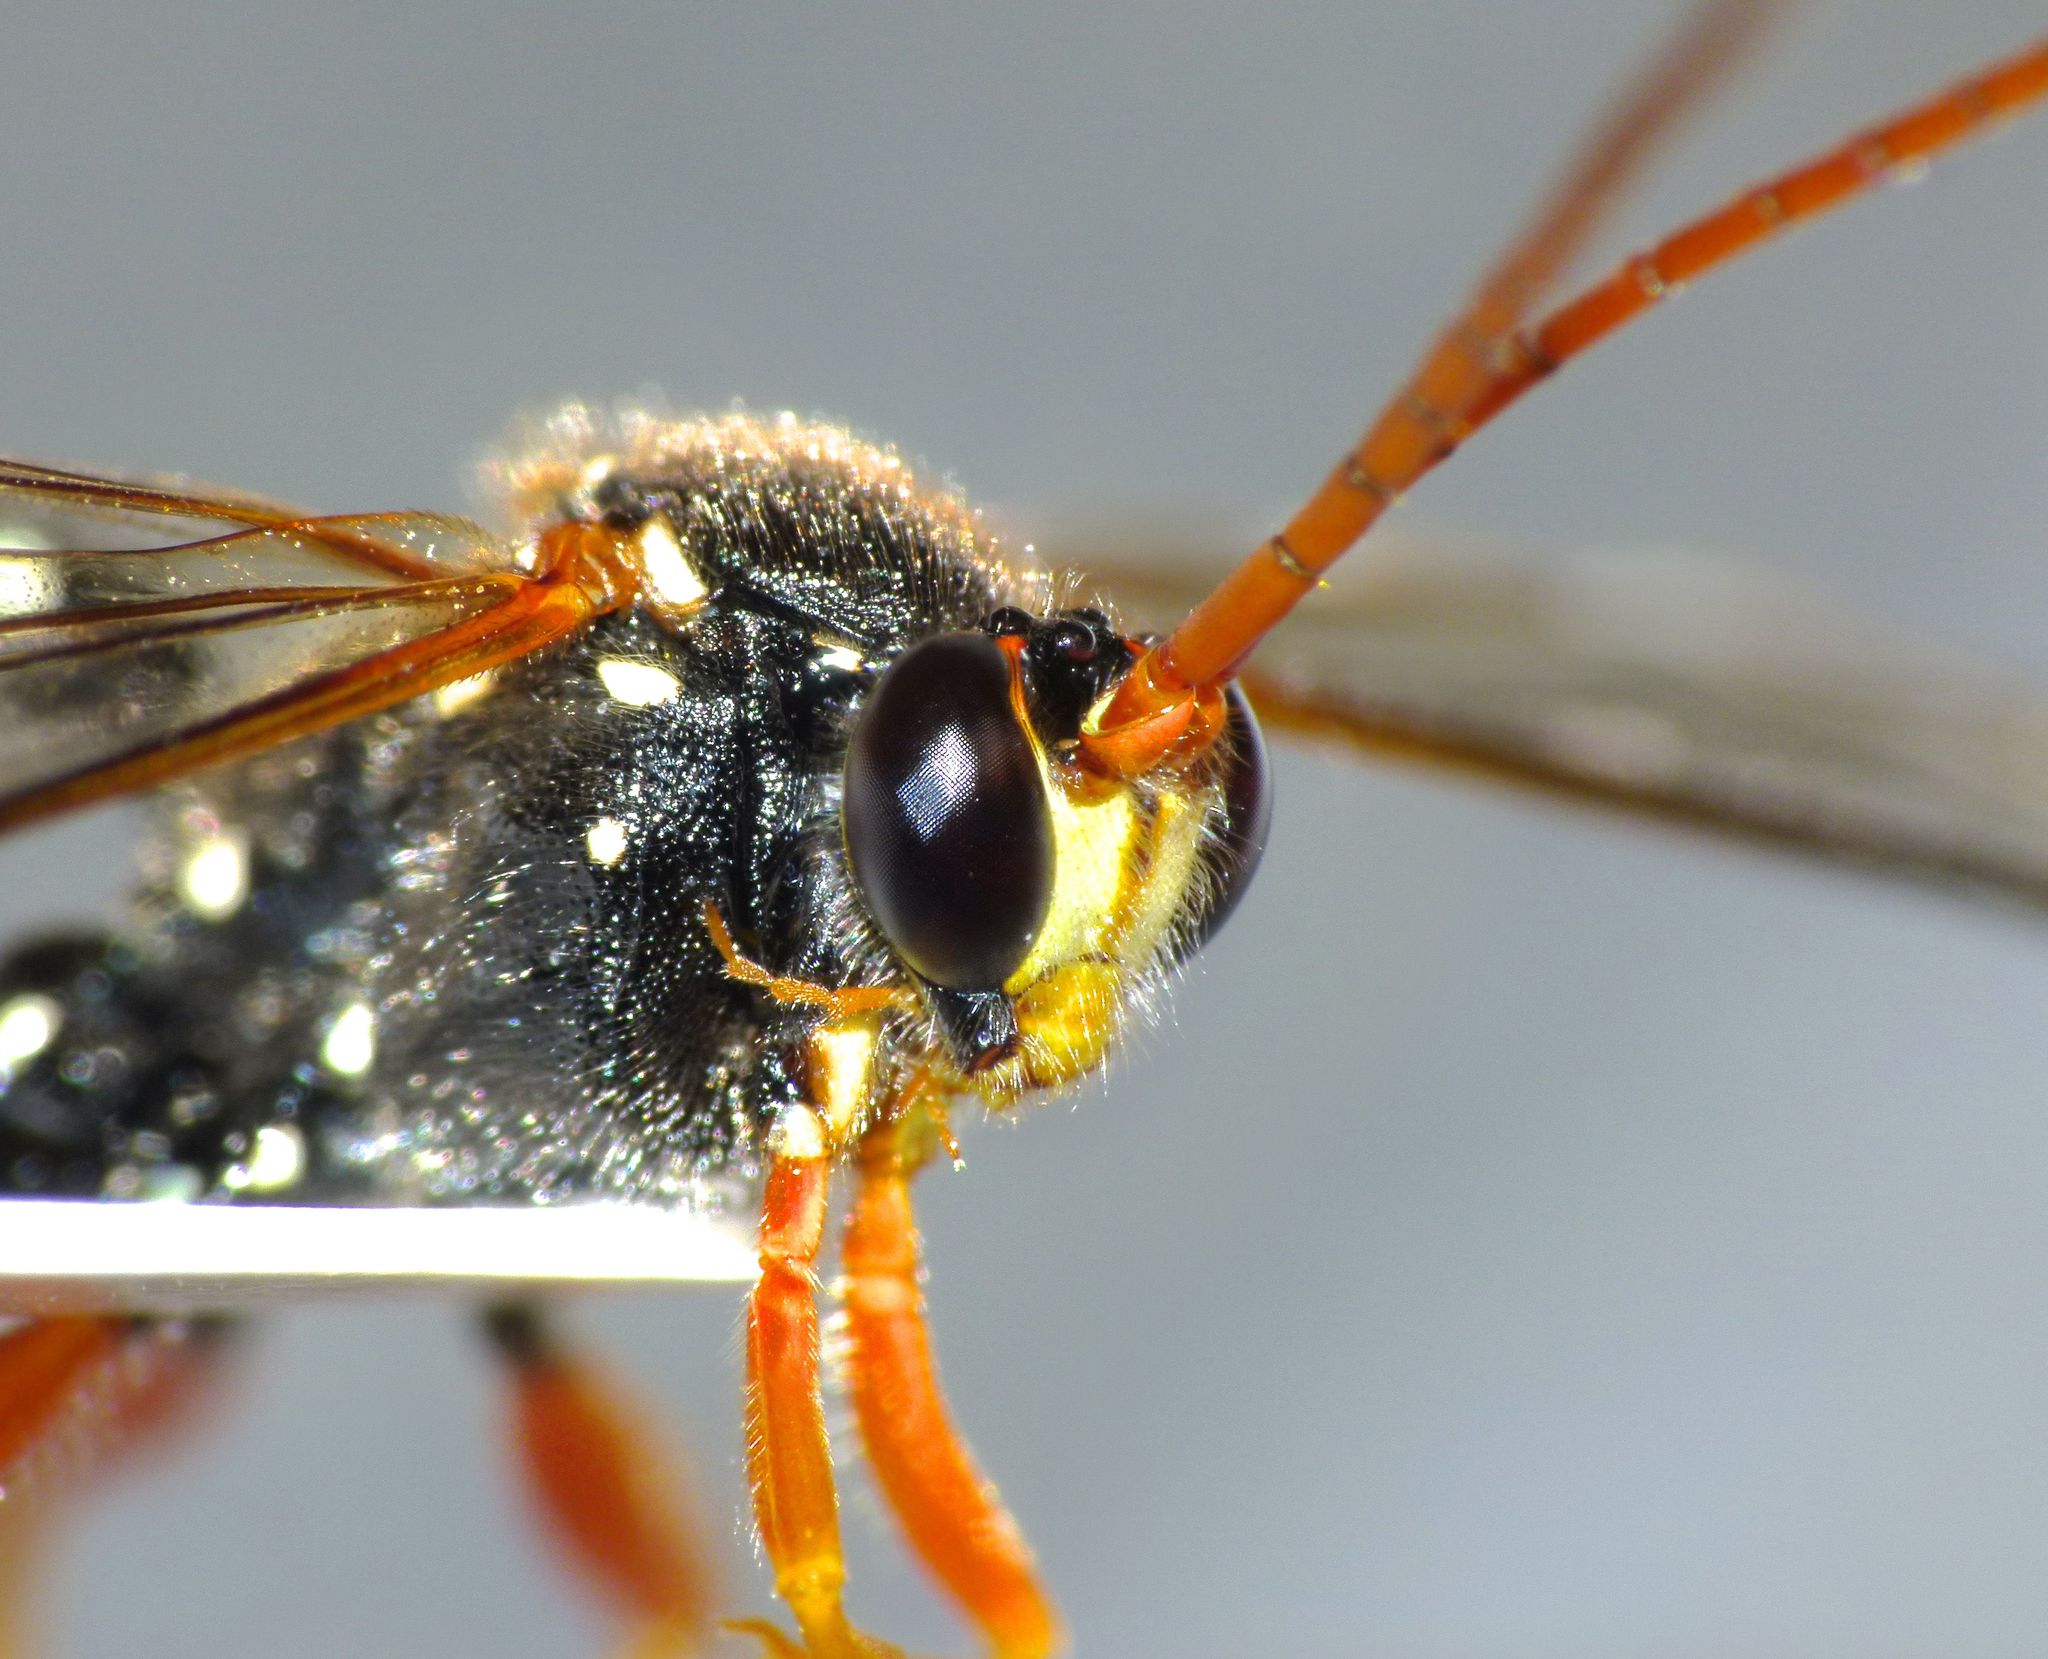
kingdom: Animalia
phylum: Arthropoda
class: Insecta
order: Hymenoptera
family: Ichneumonidae
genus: Echthromorpha
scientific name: Echthromorpha intricatoria
